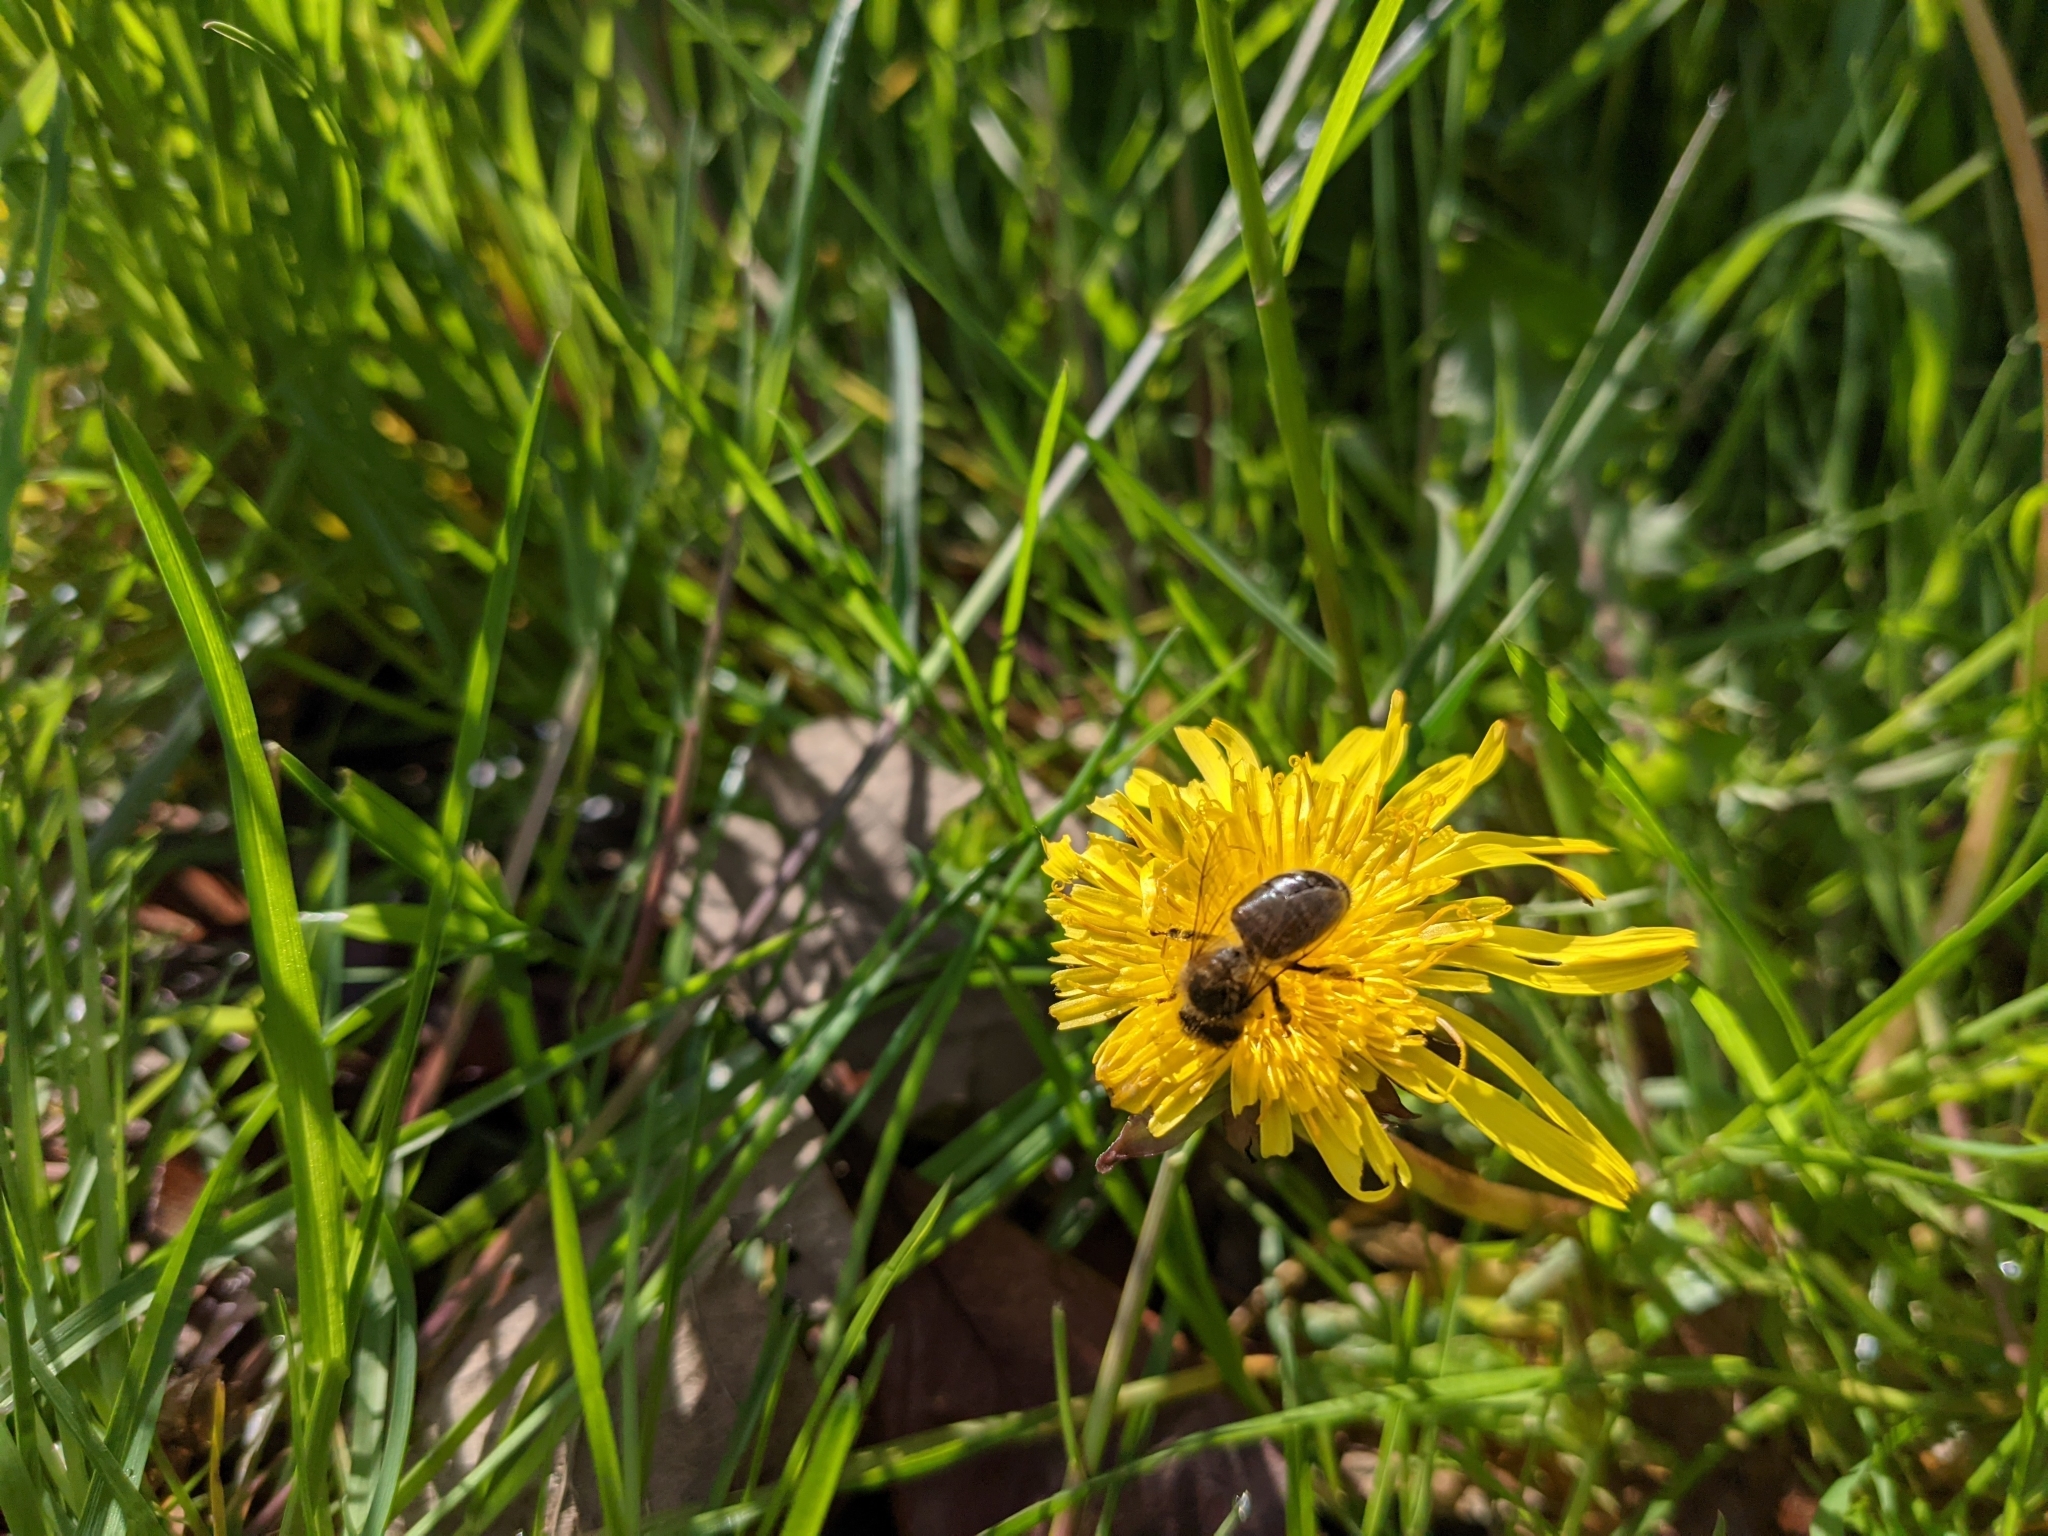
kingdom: Animalia
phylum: Arthropoda
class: Insecta
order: Hymenoptera
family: Apidae
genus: Apis
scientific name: Apis mellifera
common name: Honey bee
